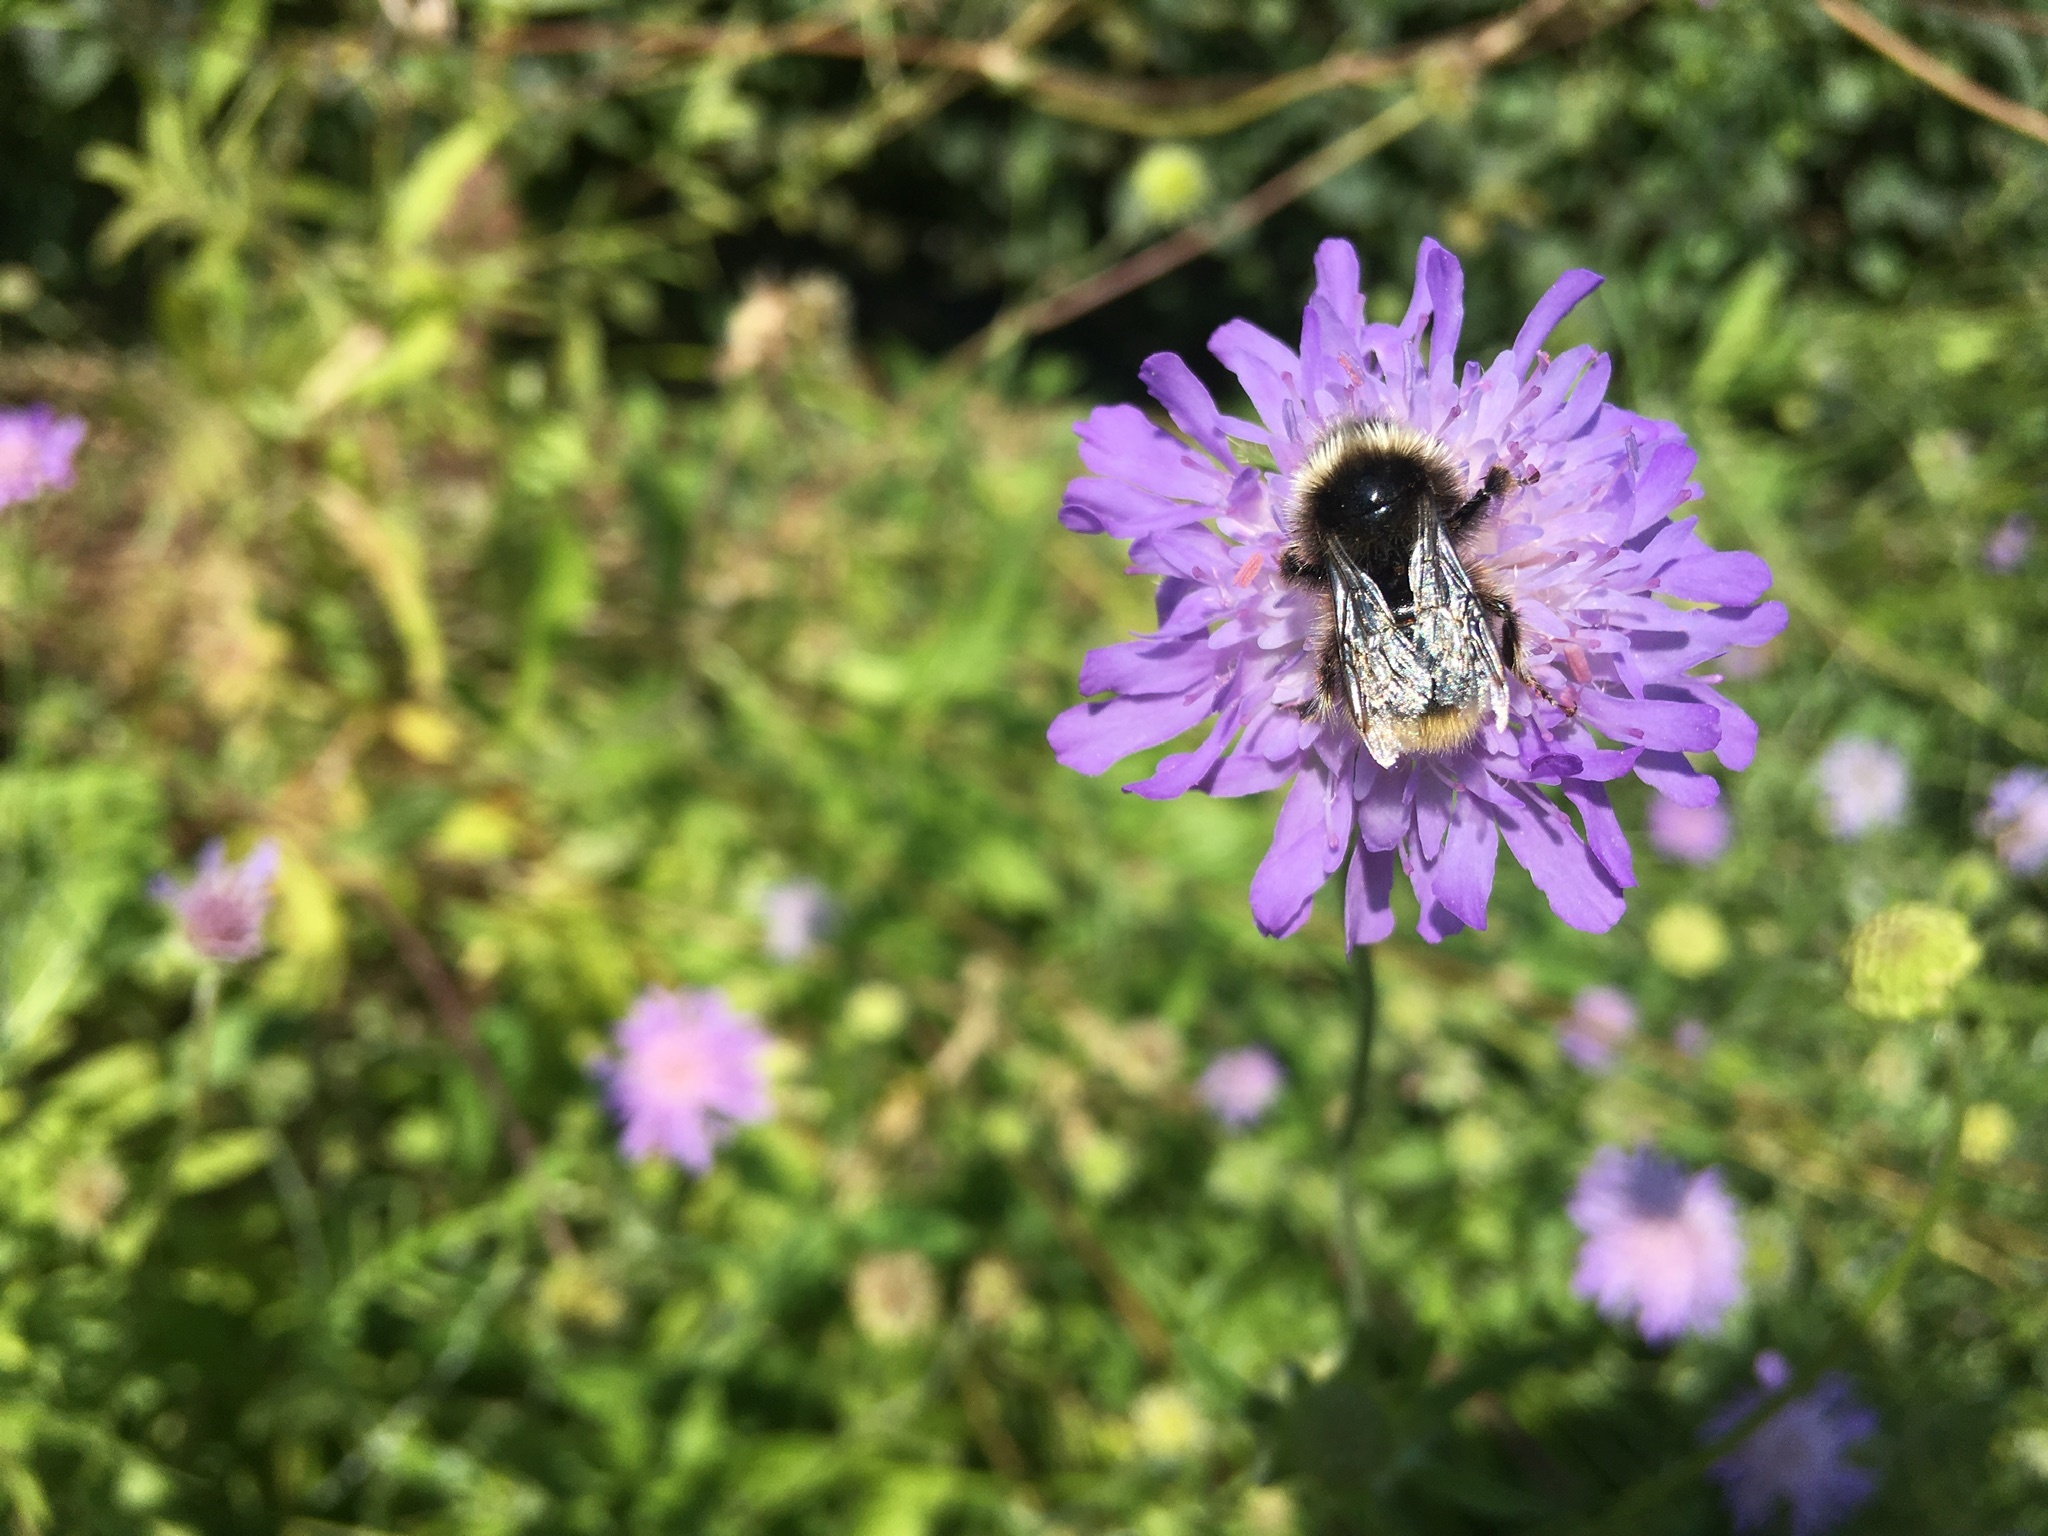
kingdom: Animalia
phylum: Arthropoda
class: Insecta
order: Hymenoptera
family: Apidae
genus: Bombus
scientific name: Bombus lapidarius
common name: Large red-tailed humble-bee
